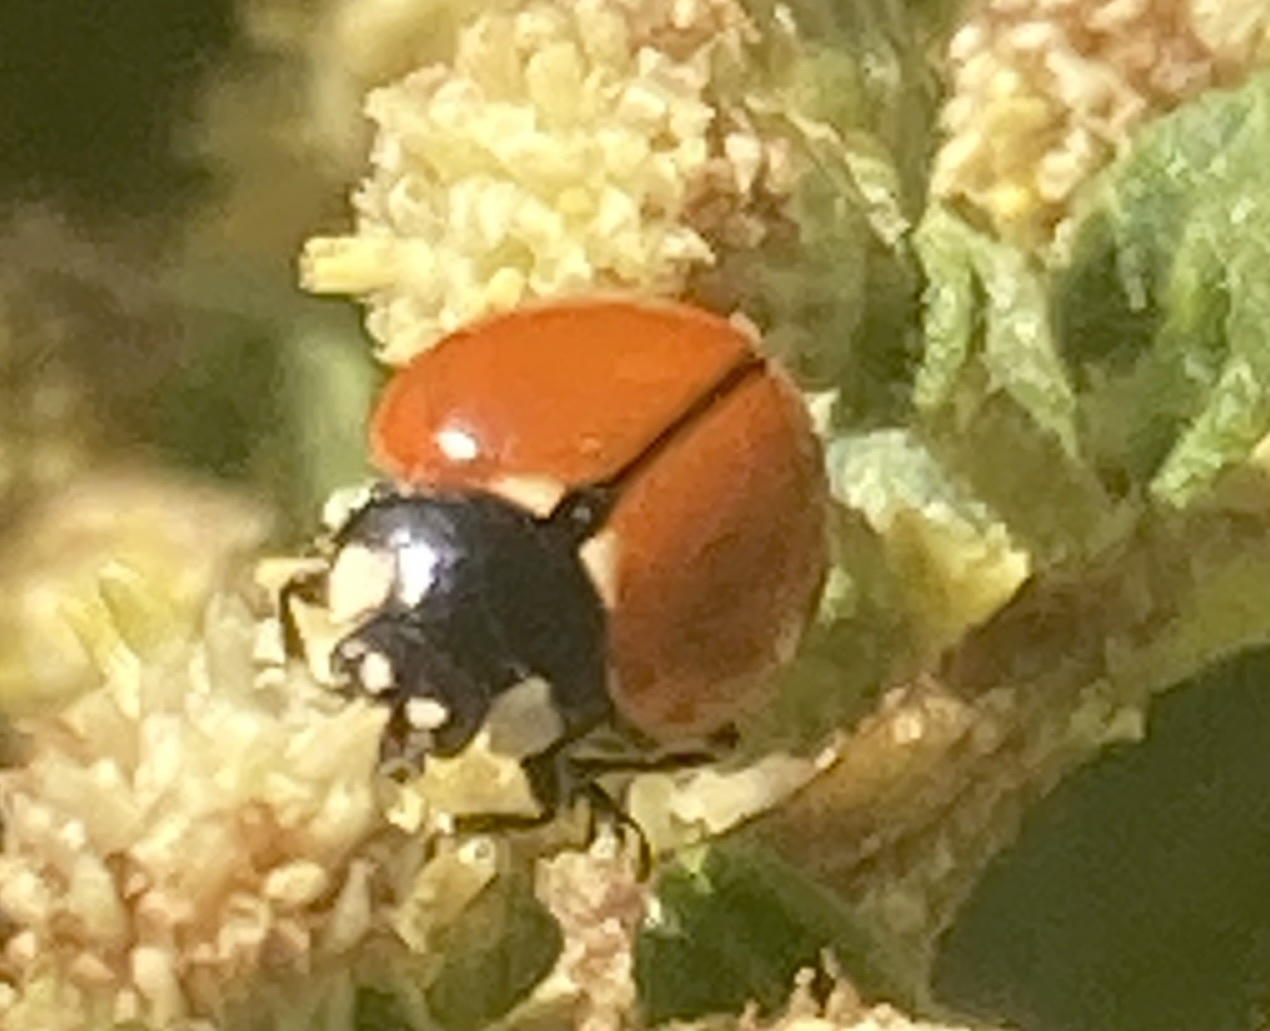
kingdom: Animalia
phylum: Arthropoda
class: Insecta
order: Coleoptera
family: Coccinellidae
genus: Coccinella
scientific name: Coccinella californica
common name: Lady beetle
